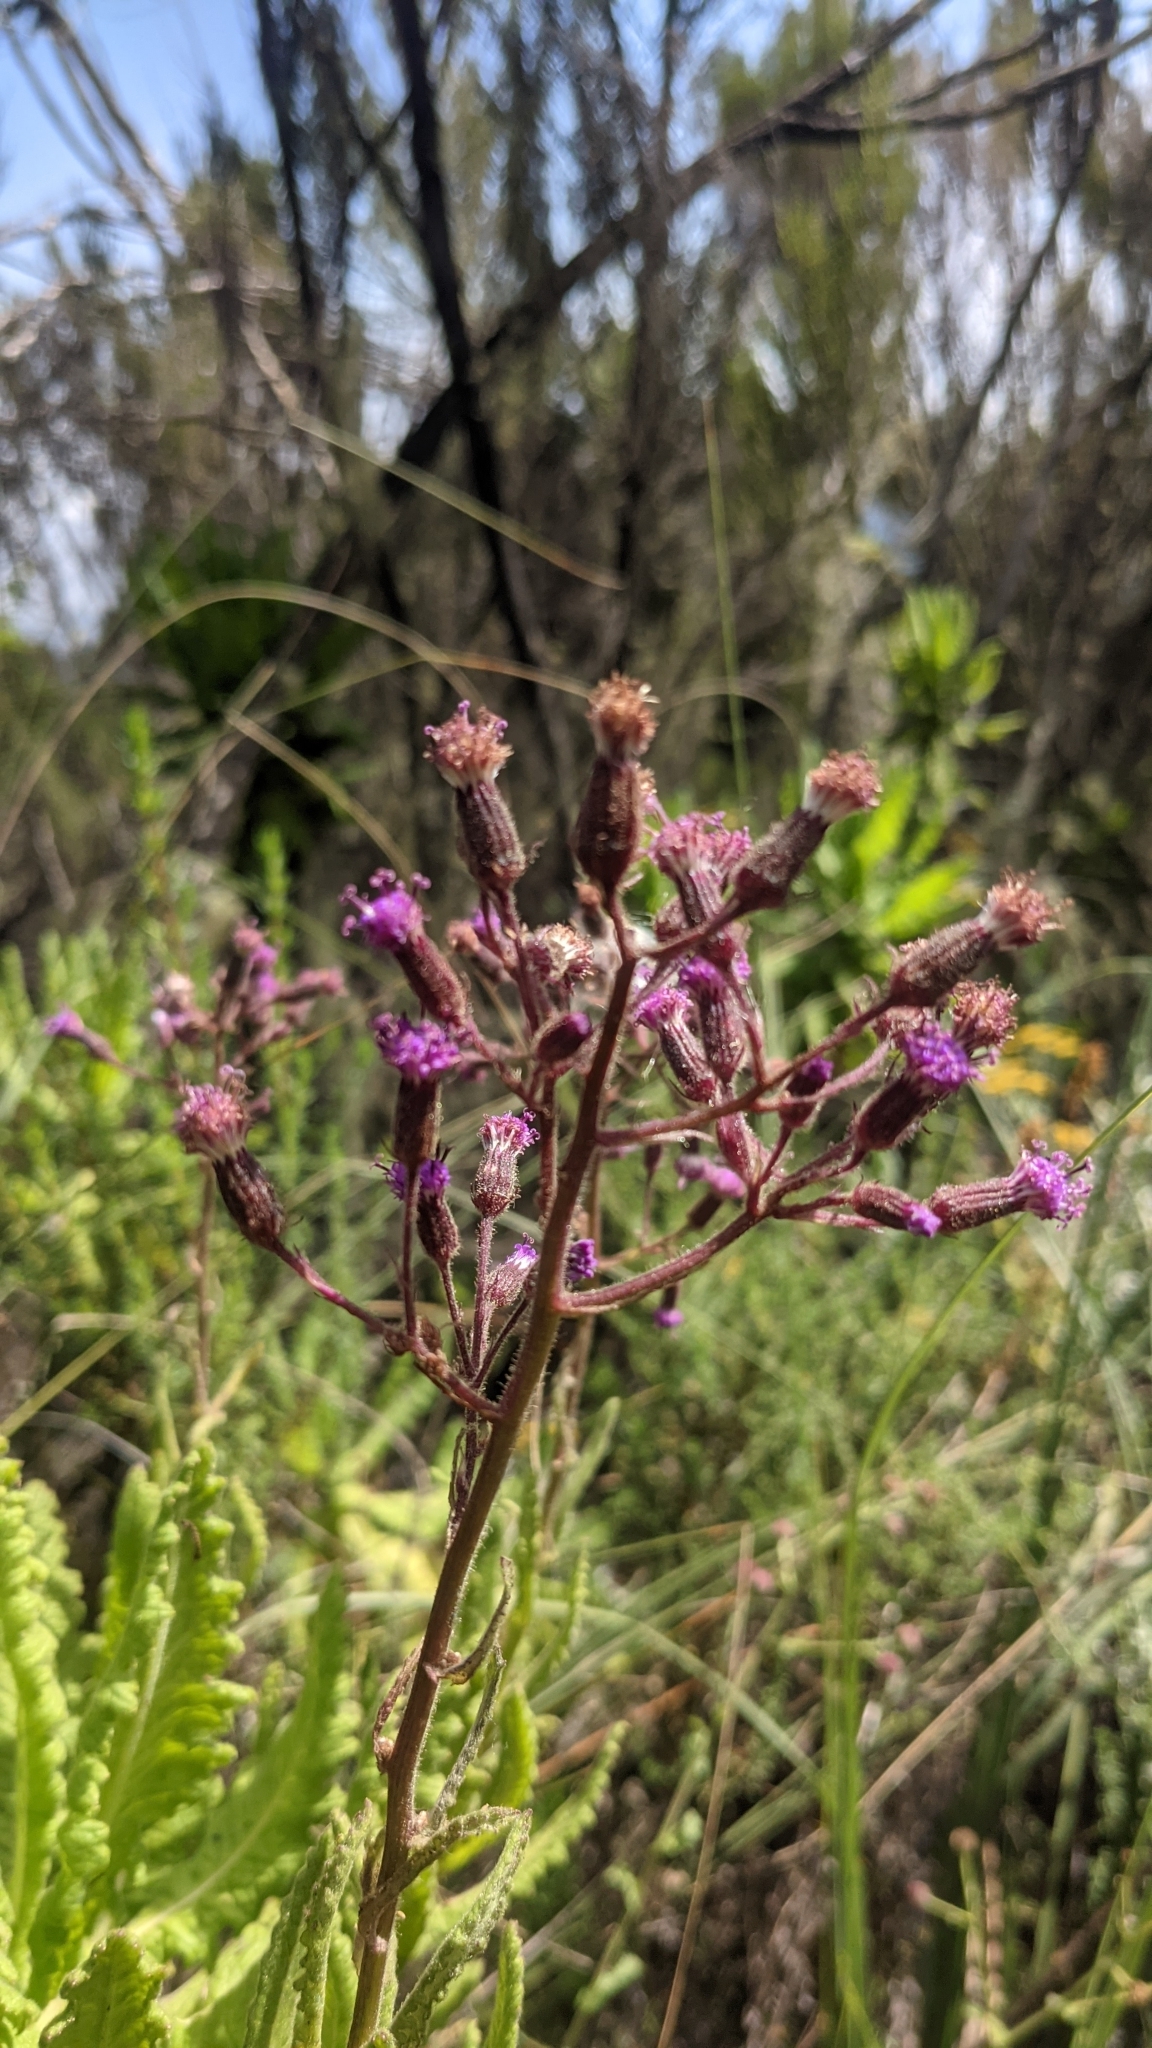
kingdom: Plantae
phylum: Tracheophyta
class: Magnoliopsida
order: Asterales
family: Asteraceae
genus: Senecio
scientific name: Senecio cyaneus
